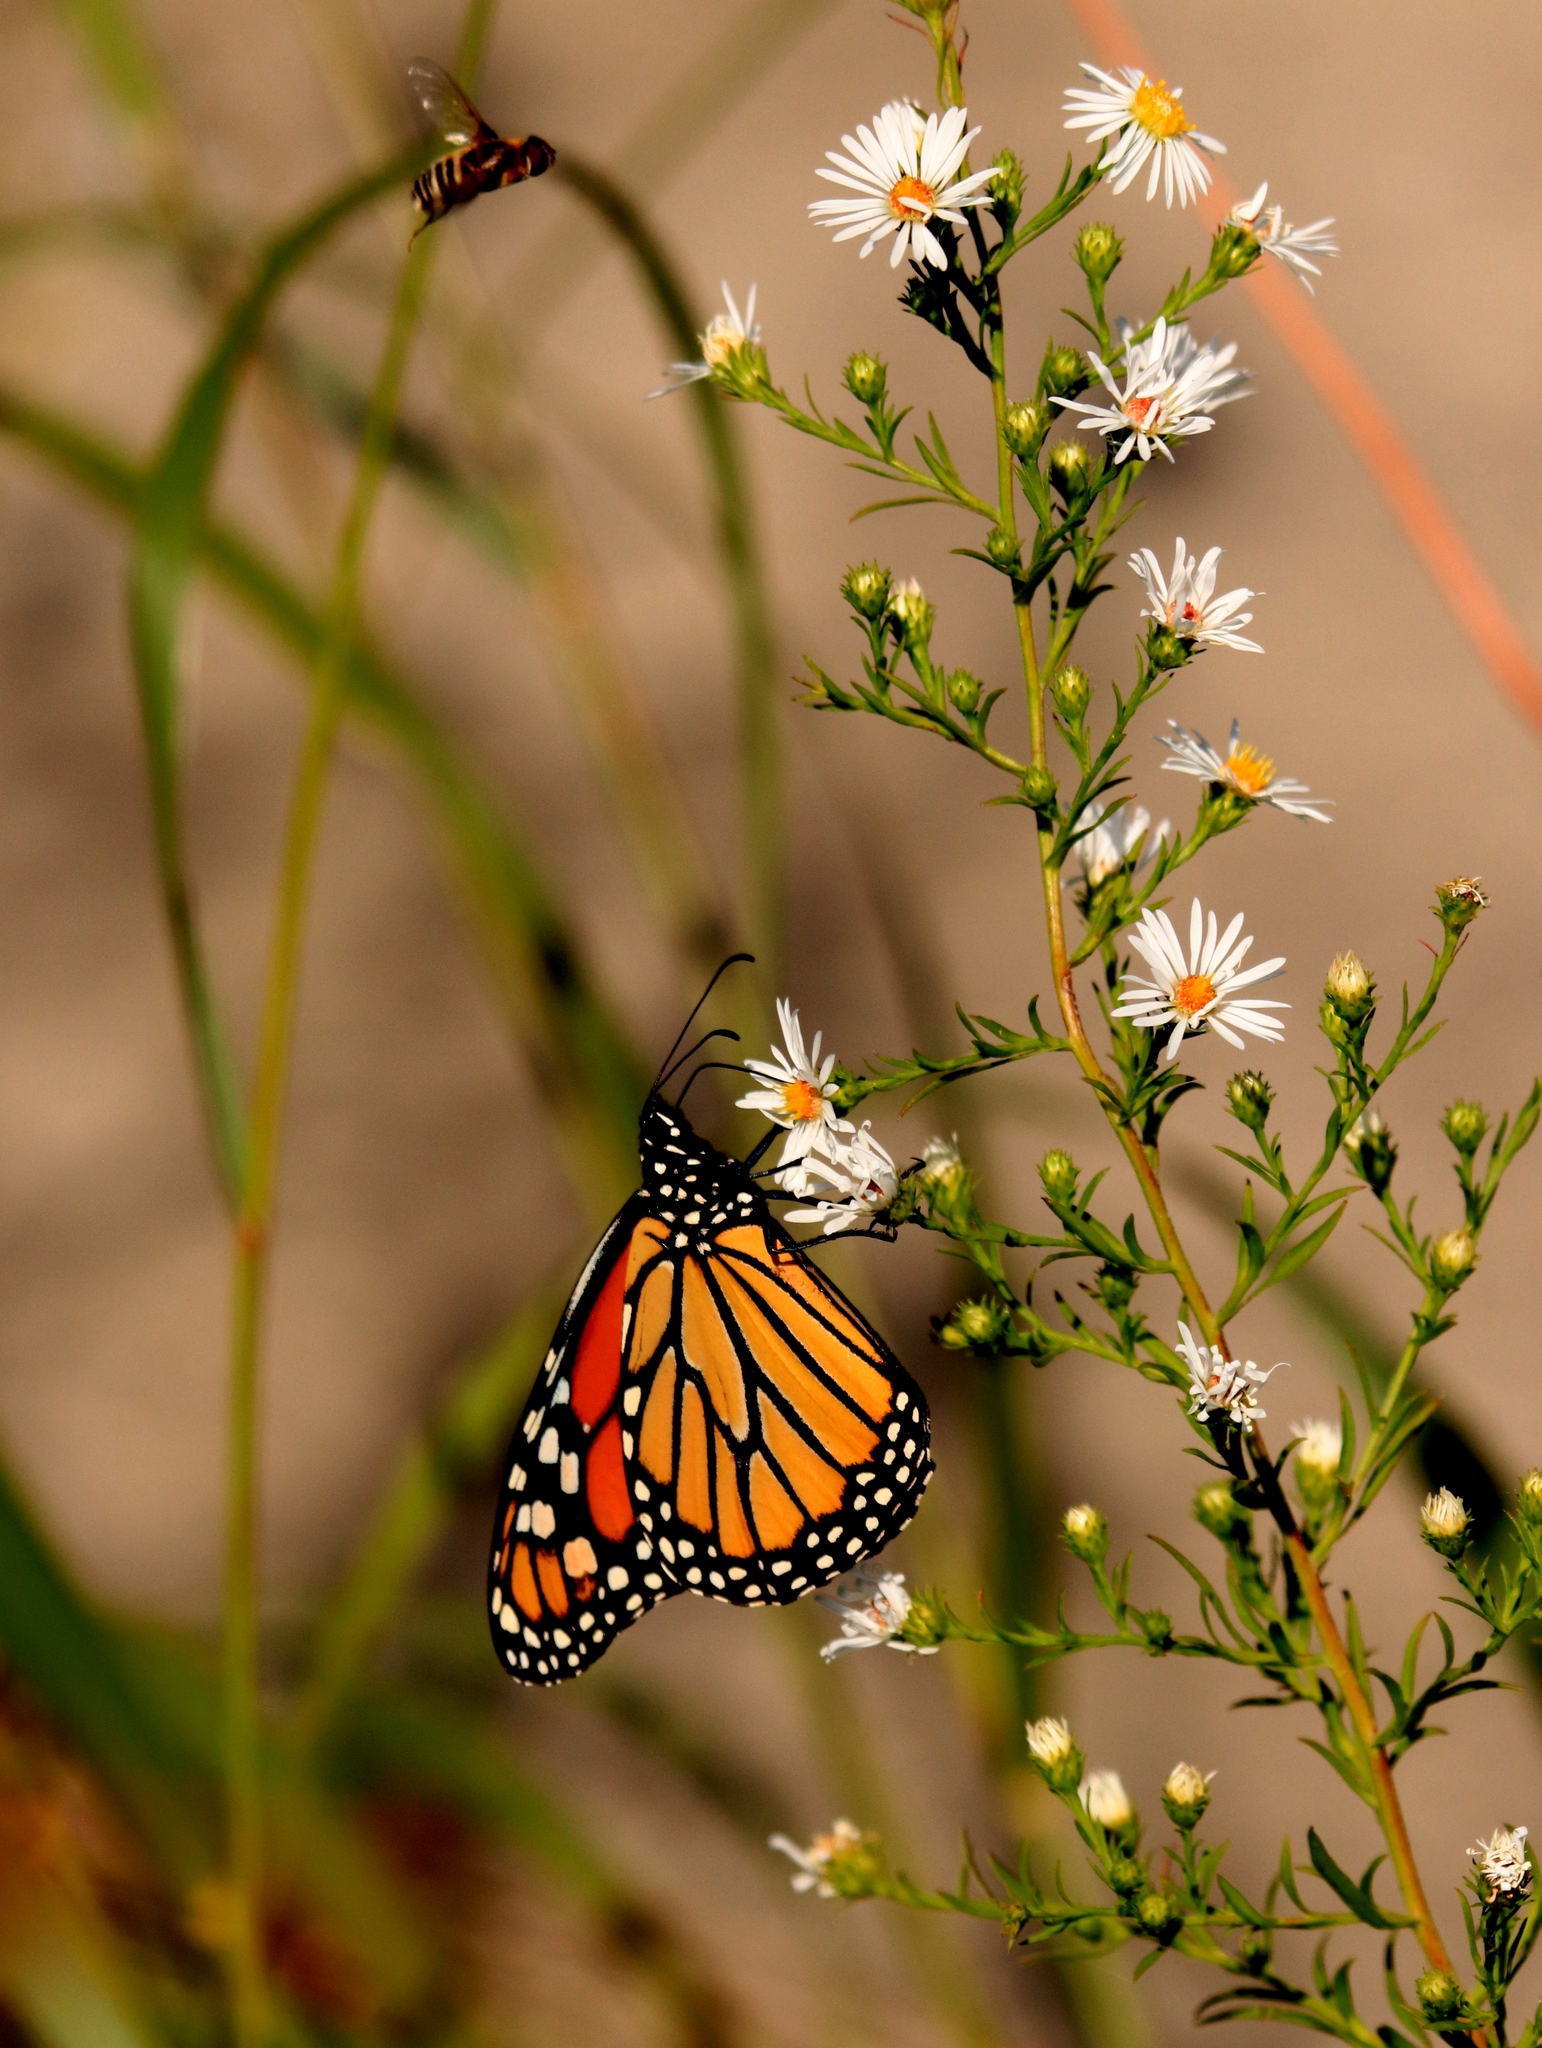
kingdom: Animalia
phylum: Arthropoda
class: Insecta
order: Lepidoptera
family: Nymphalidae
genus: Danaus
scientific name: Danaus plexippus
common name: Monarch
